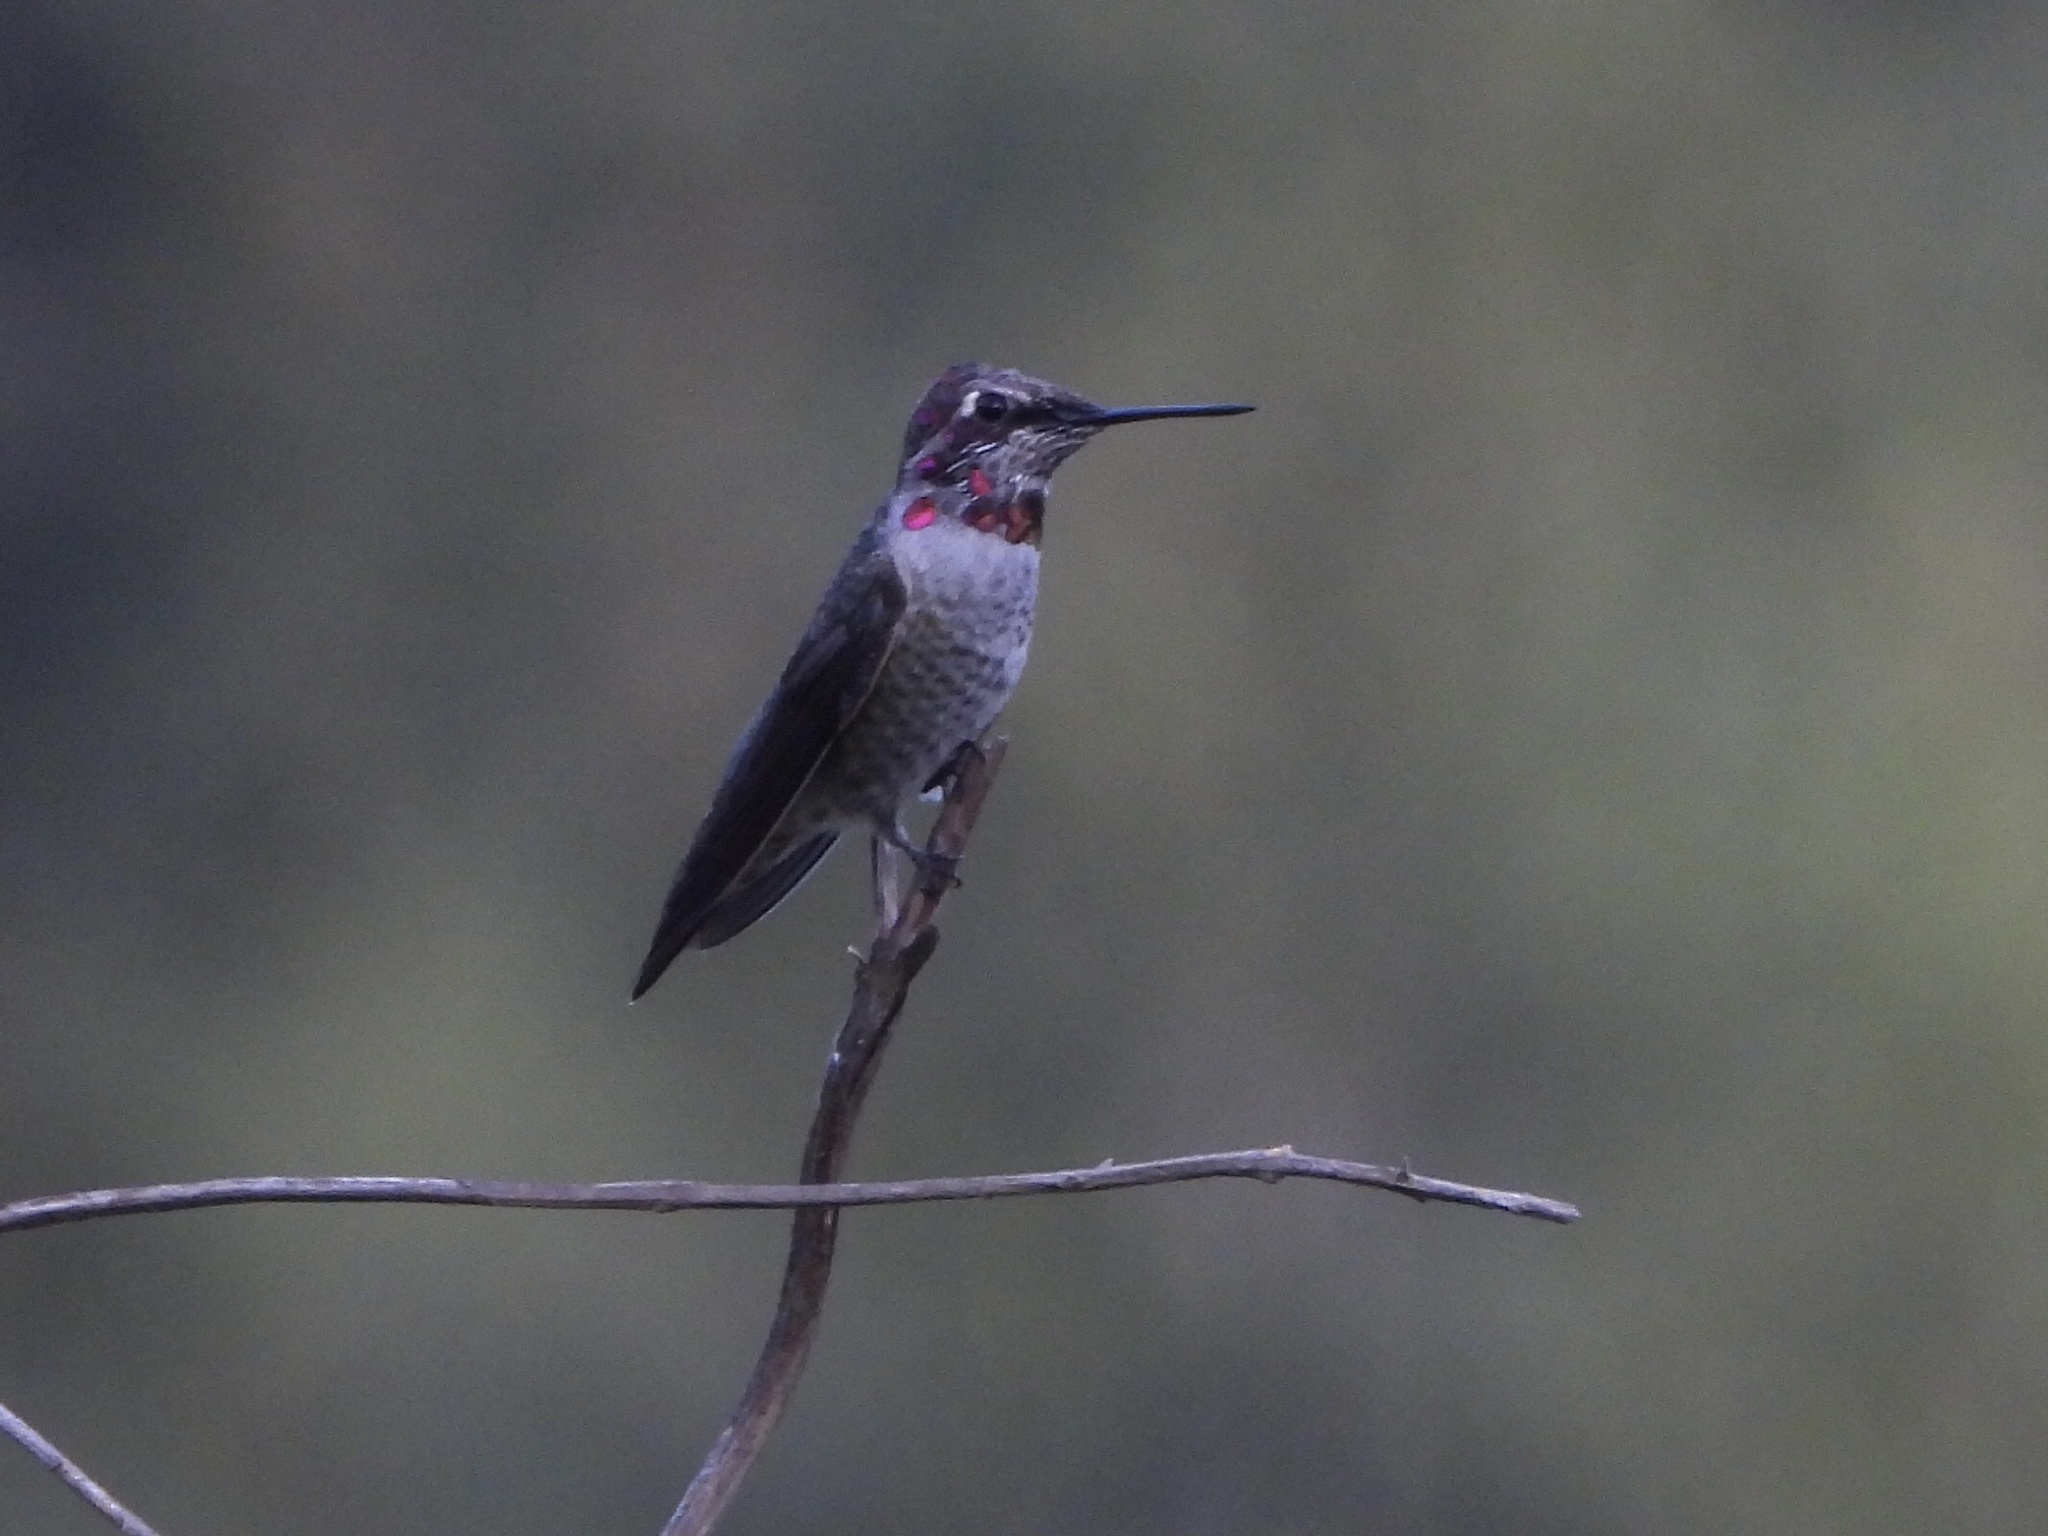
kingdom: Animalia
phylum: Chordata
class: Aves
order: Apodiformes
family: Trochilidae
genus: Calypte
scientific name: Calypte anna
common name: Anna's hummingbird
